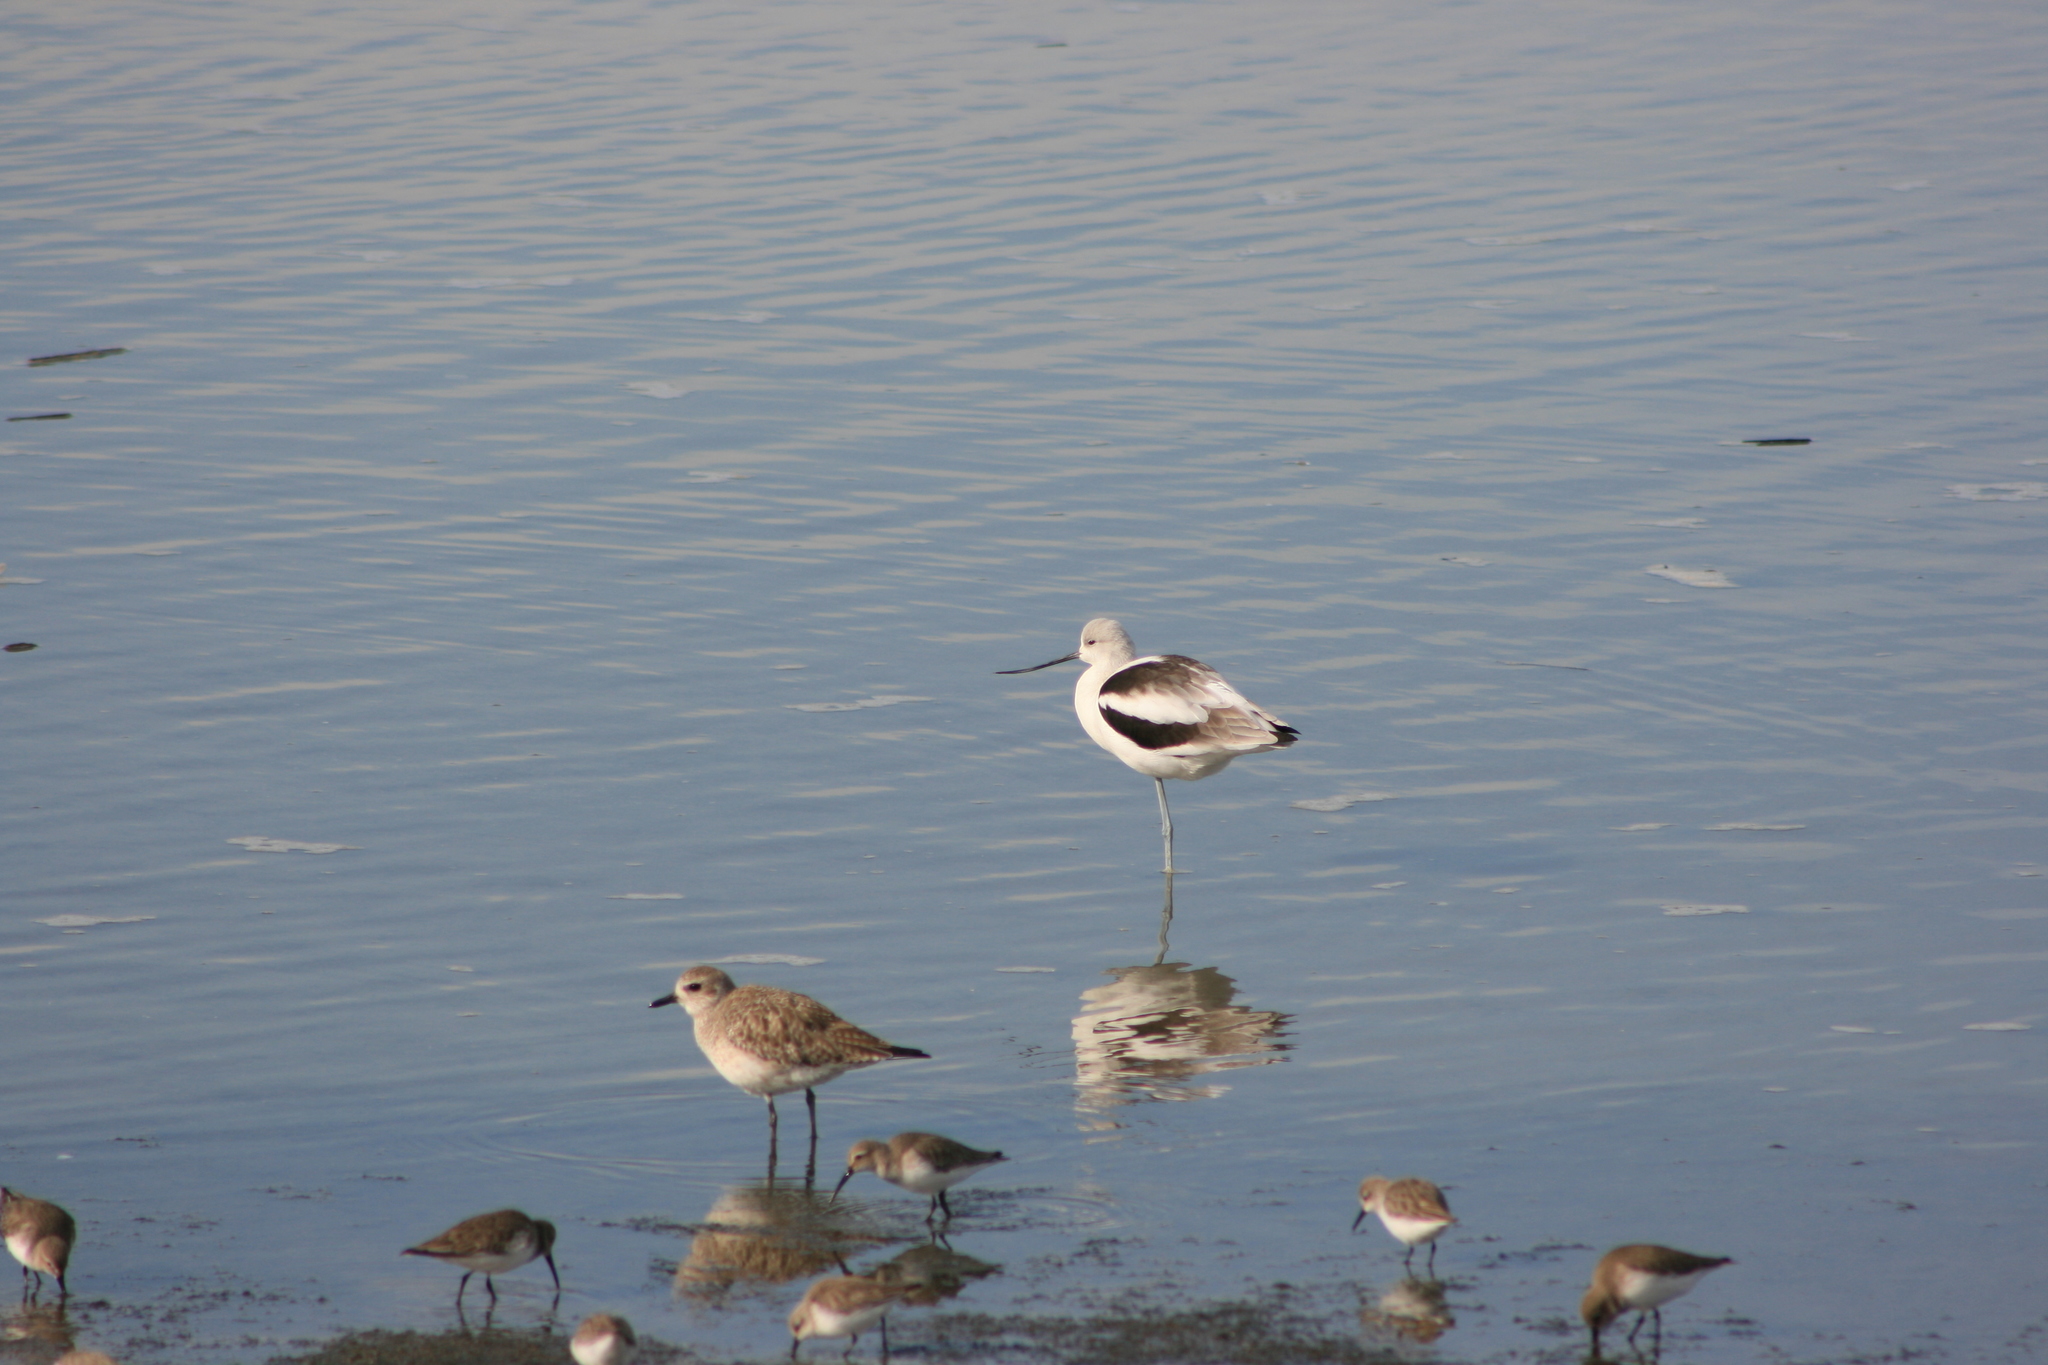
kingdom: Animalia
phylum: Chordata
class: Aves
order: Charadriiformes
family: Recurvirostridae
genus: Recurvirostra
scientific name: Recurvirostra americana
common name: American avocet
